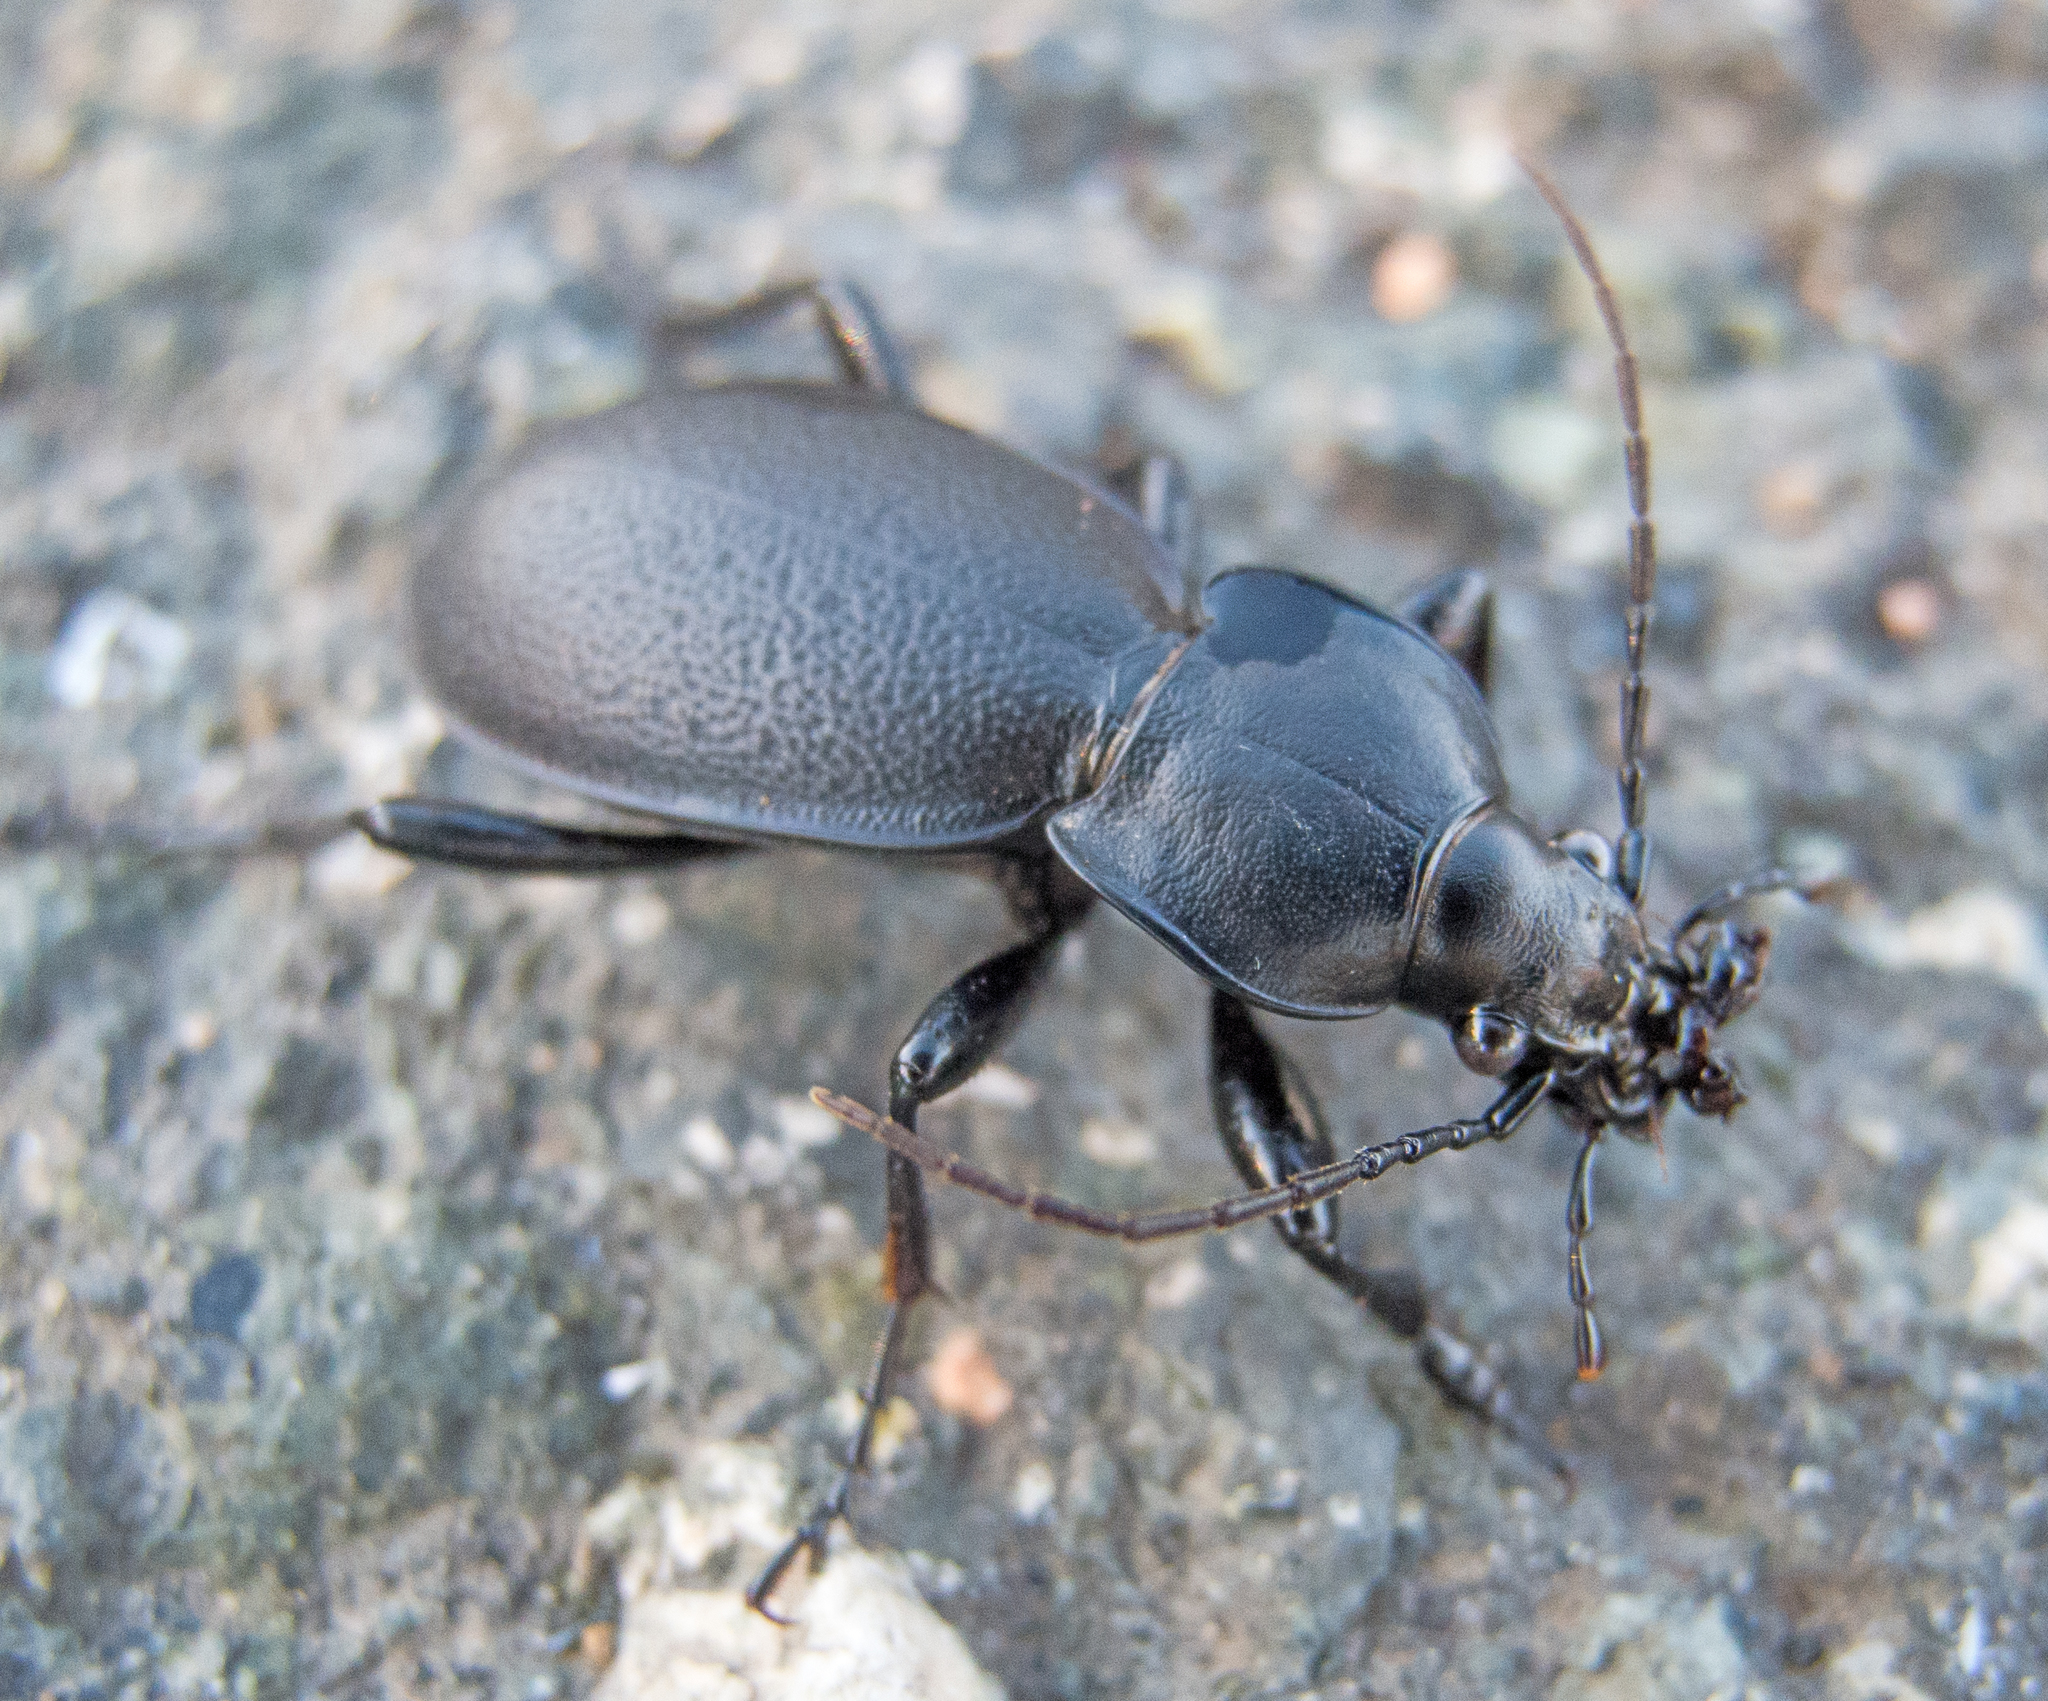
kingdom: Animalia
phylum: Arthropoda
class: Insecta
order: Coleoptera
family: Carabidae
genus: Carabus
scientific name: Carabus coriaceus
